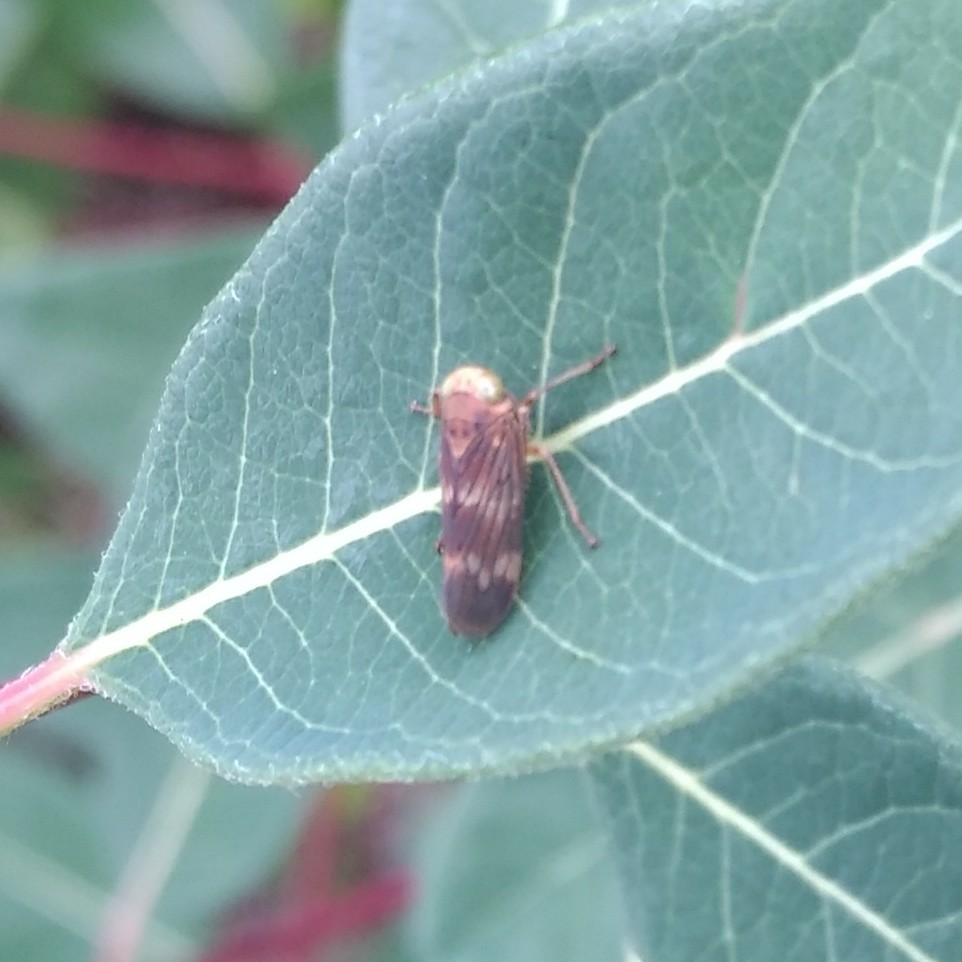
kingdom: Animalia
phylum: Arthropoda
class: Insecta
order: Hemiptera
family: Cicadellidae
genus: Jikradia
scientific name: Jikradia olitoria
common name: Coppery leafhopper
